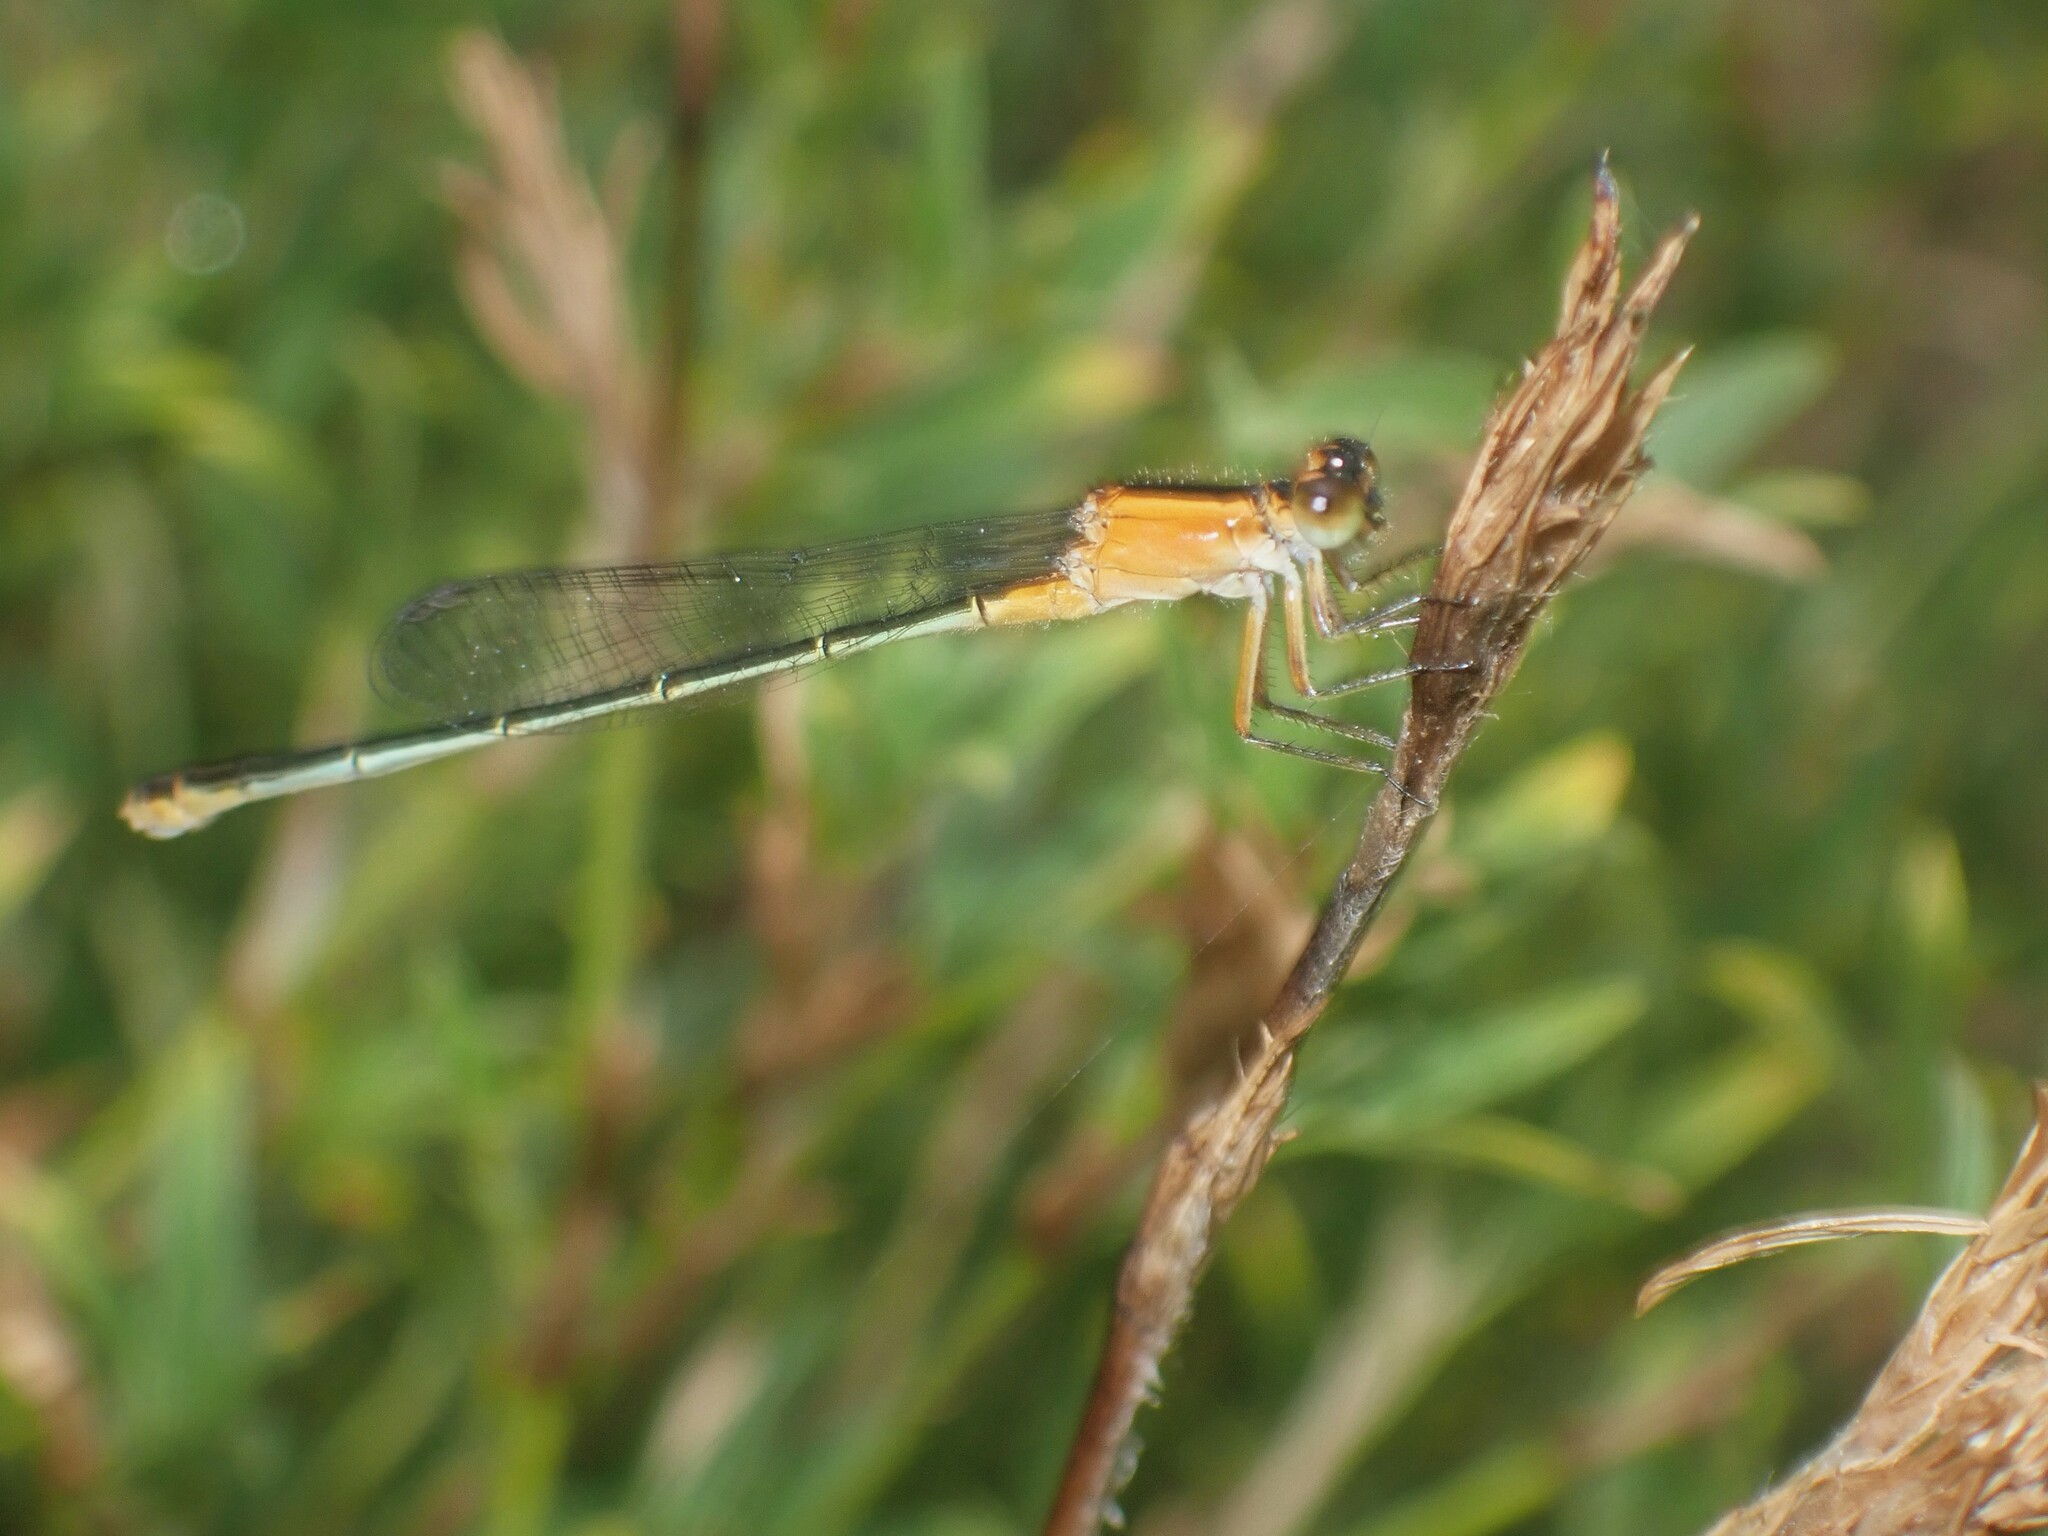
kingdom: Animalia
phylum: Arthropoda
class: Insecta
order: Odonata
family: Coenagrionidae
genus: Ischnura
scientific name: Ischnura ramburii
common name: Rambur's forktail
